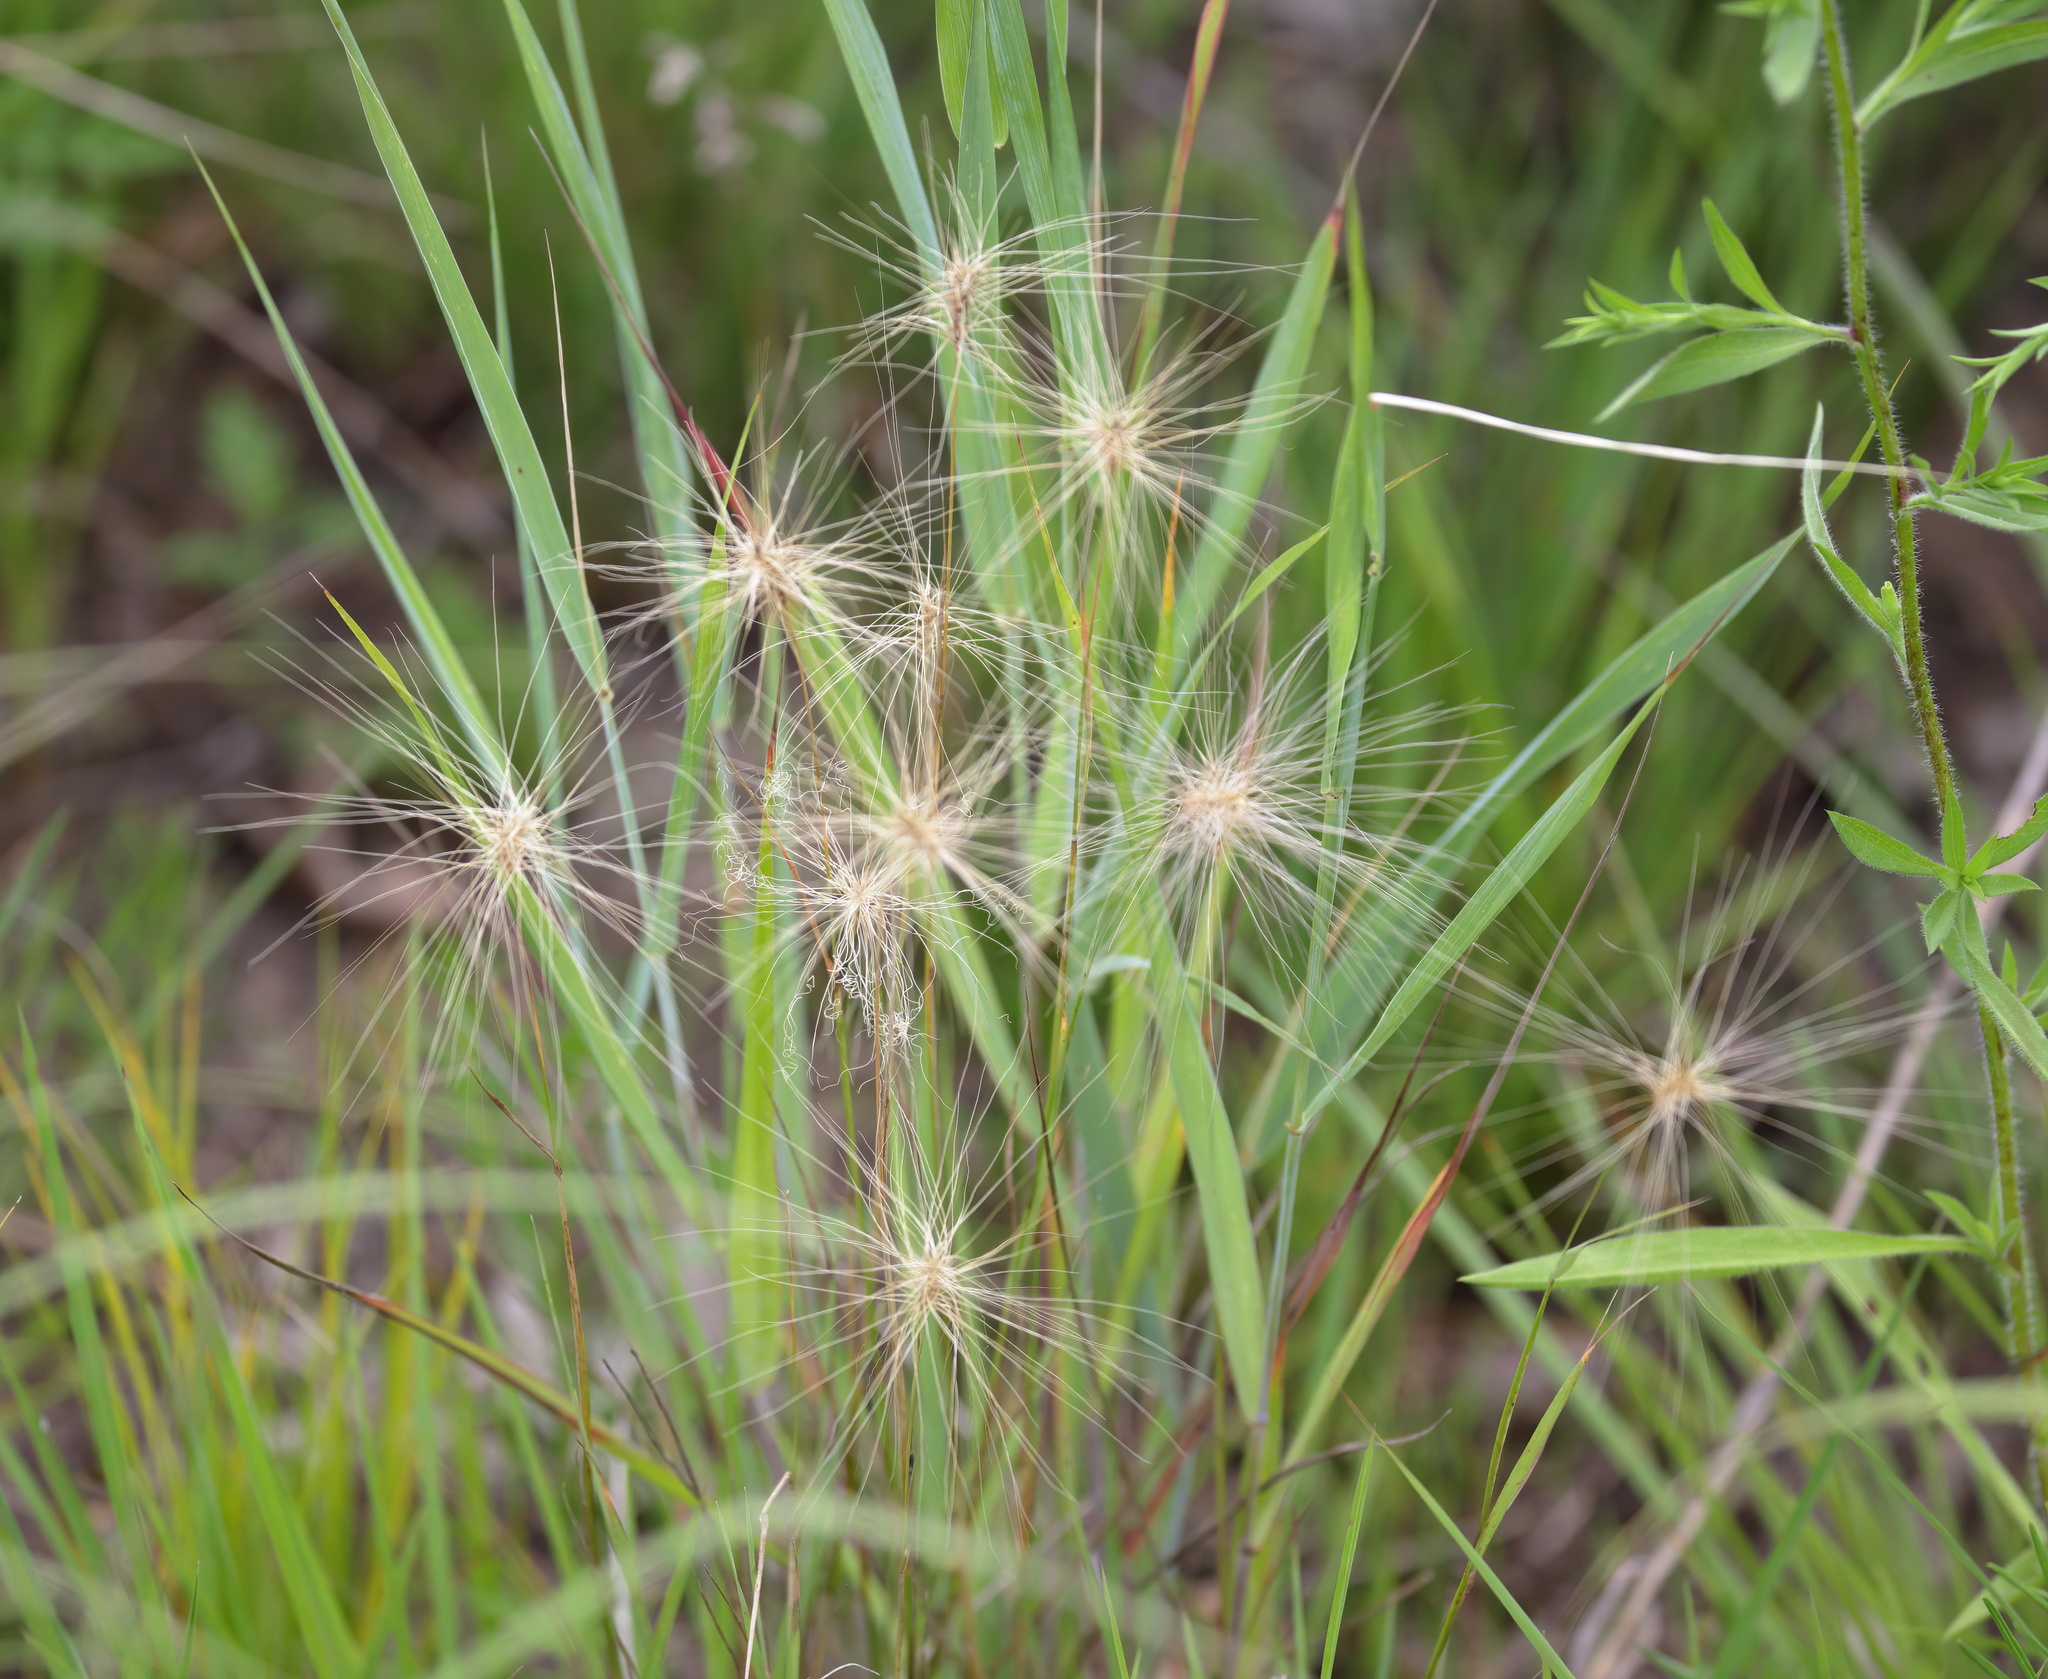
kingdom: Plantae
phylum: Tracheophyta
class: Liliopsida
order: Poales
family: Poaceae
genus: Hordeum
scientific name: Hordeum jubatum
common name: Foxtail barley
